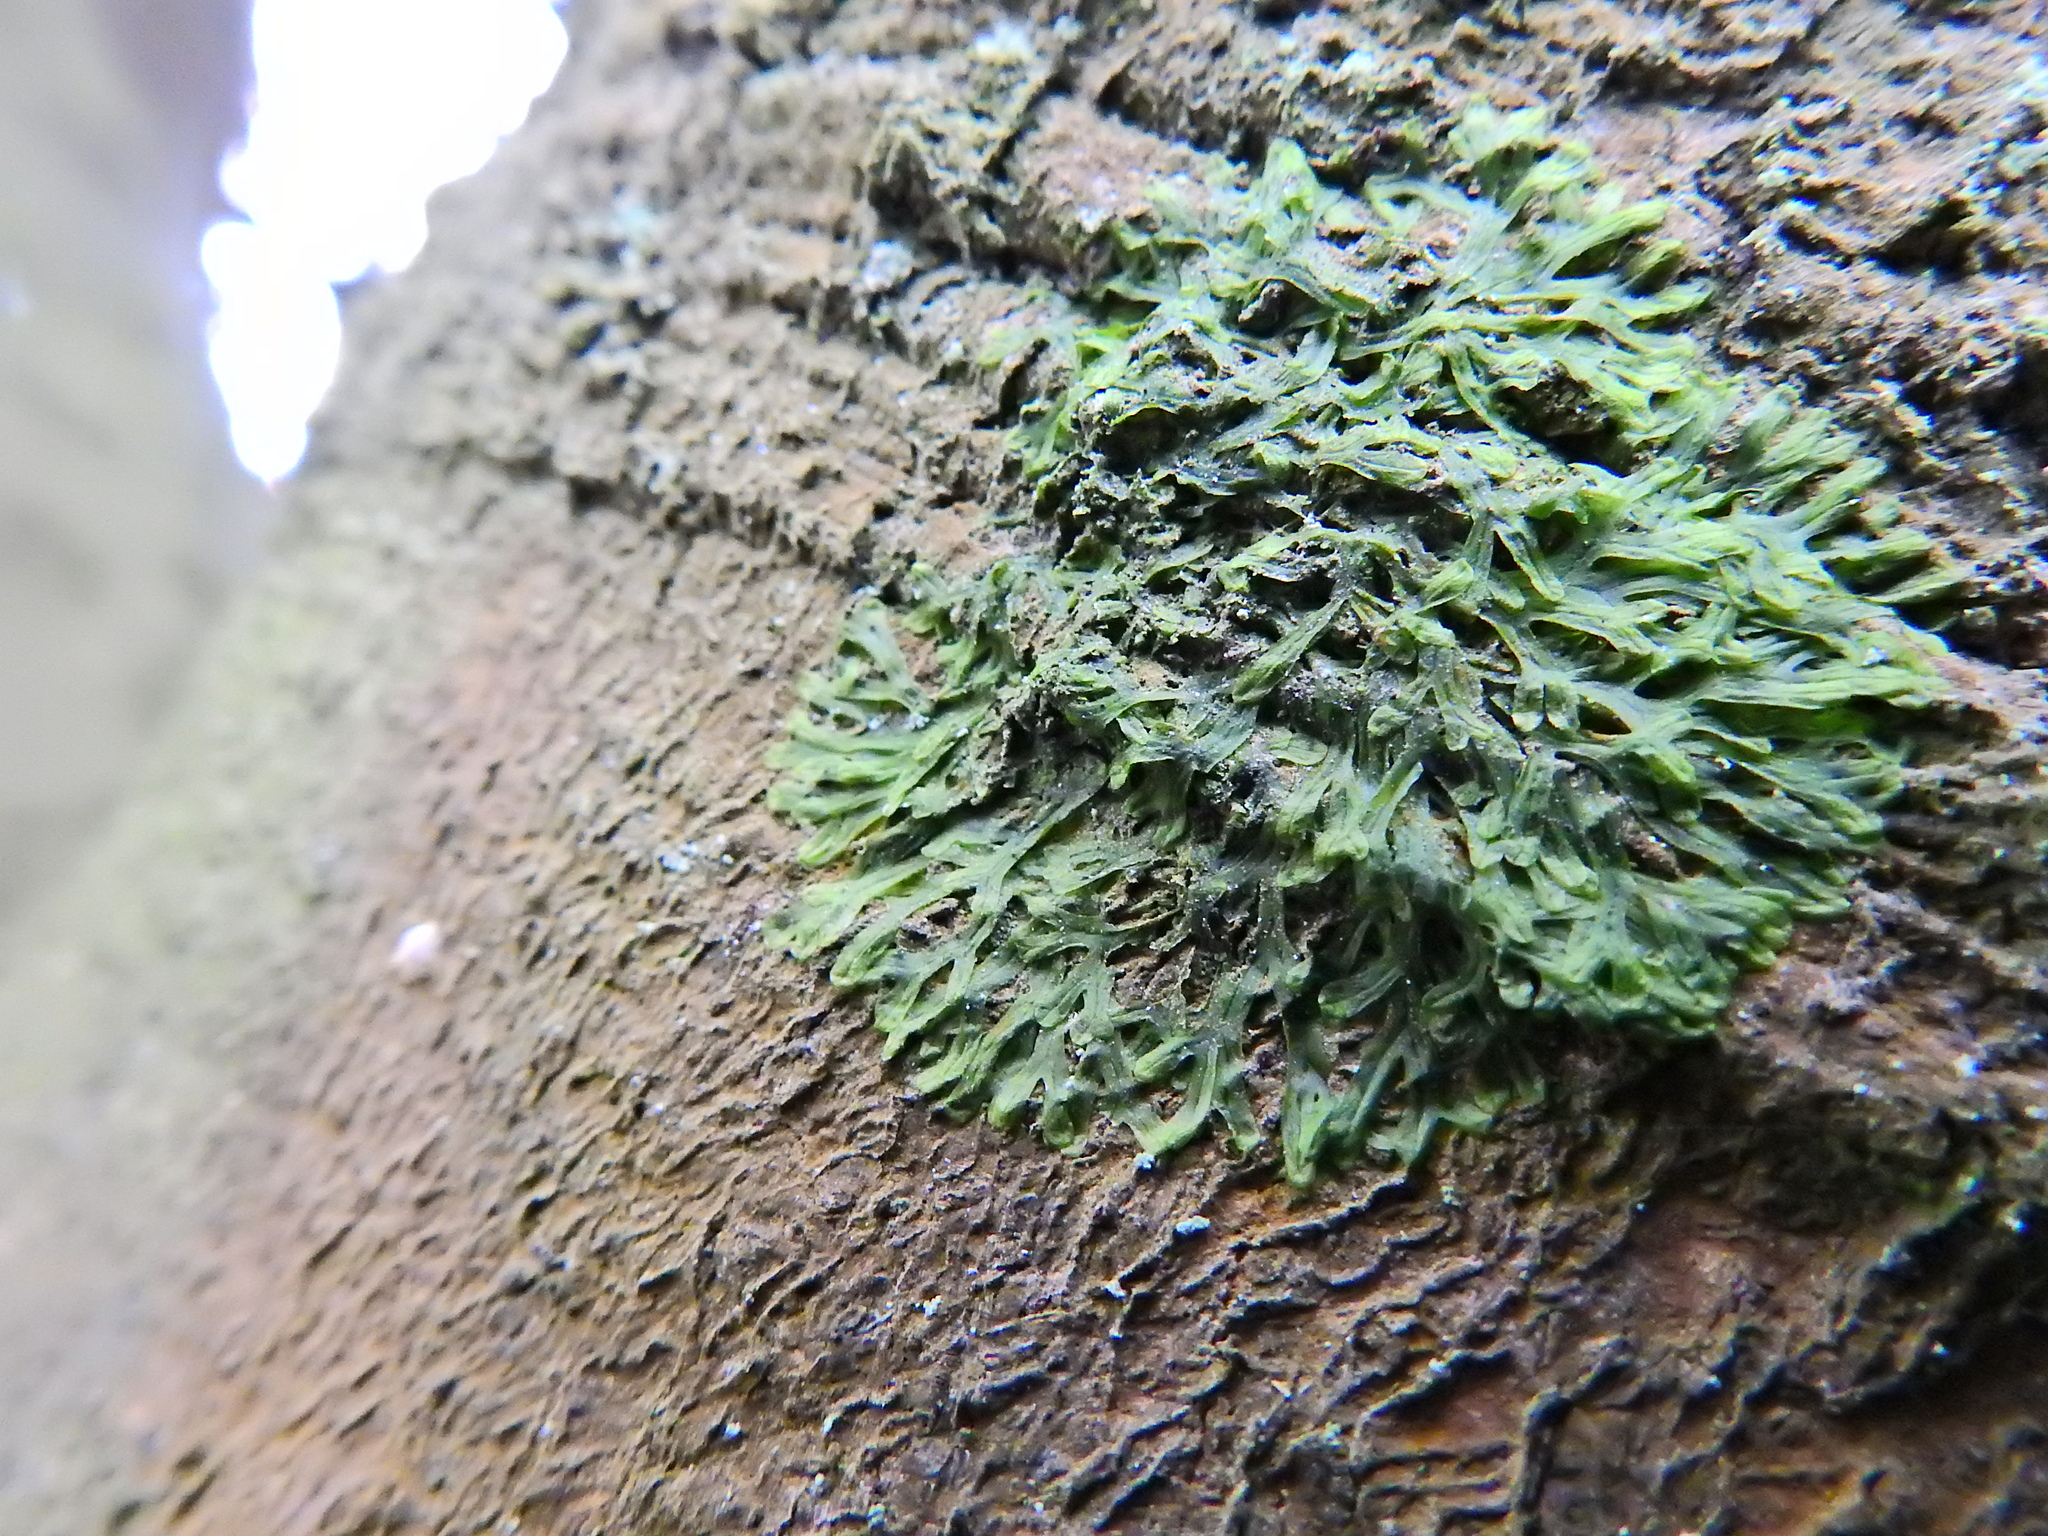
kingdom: Plantae
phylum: Marchantiophyta
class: Jungermanniopsida
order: Metzgeriales
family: Metzgeriaceae
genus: Metzgeria
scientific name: Metzgeria furcata
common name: Forked veilwort
